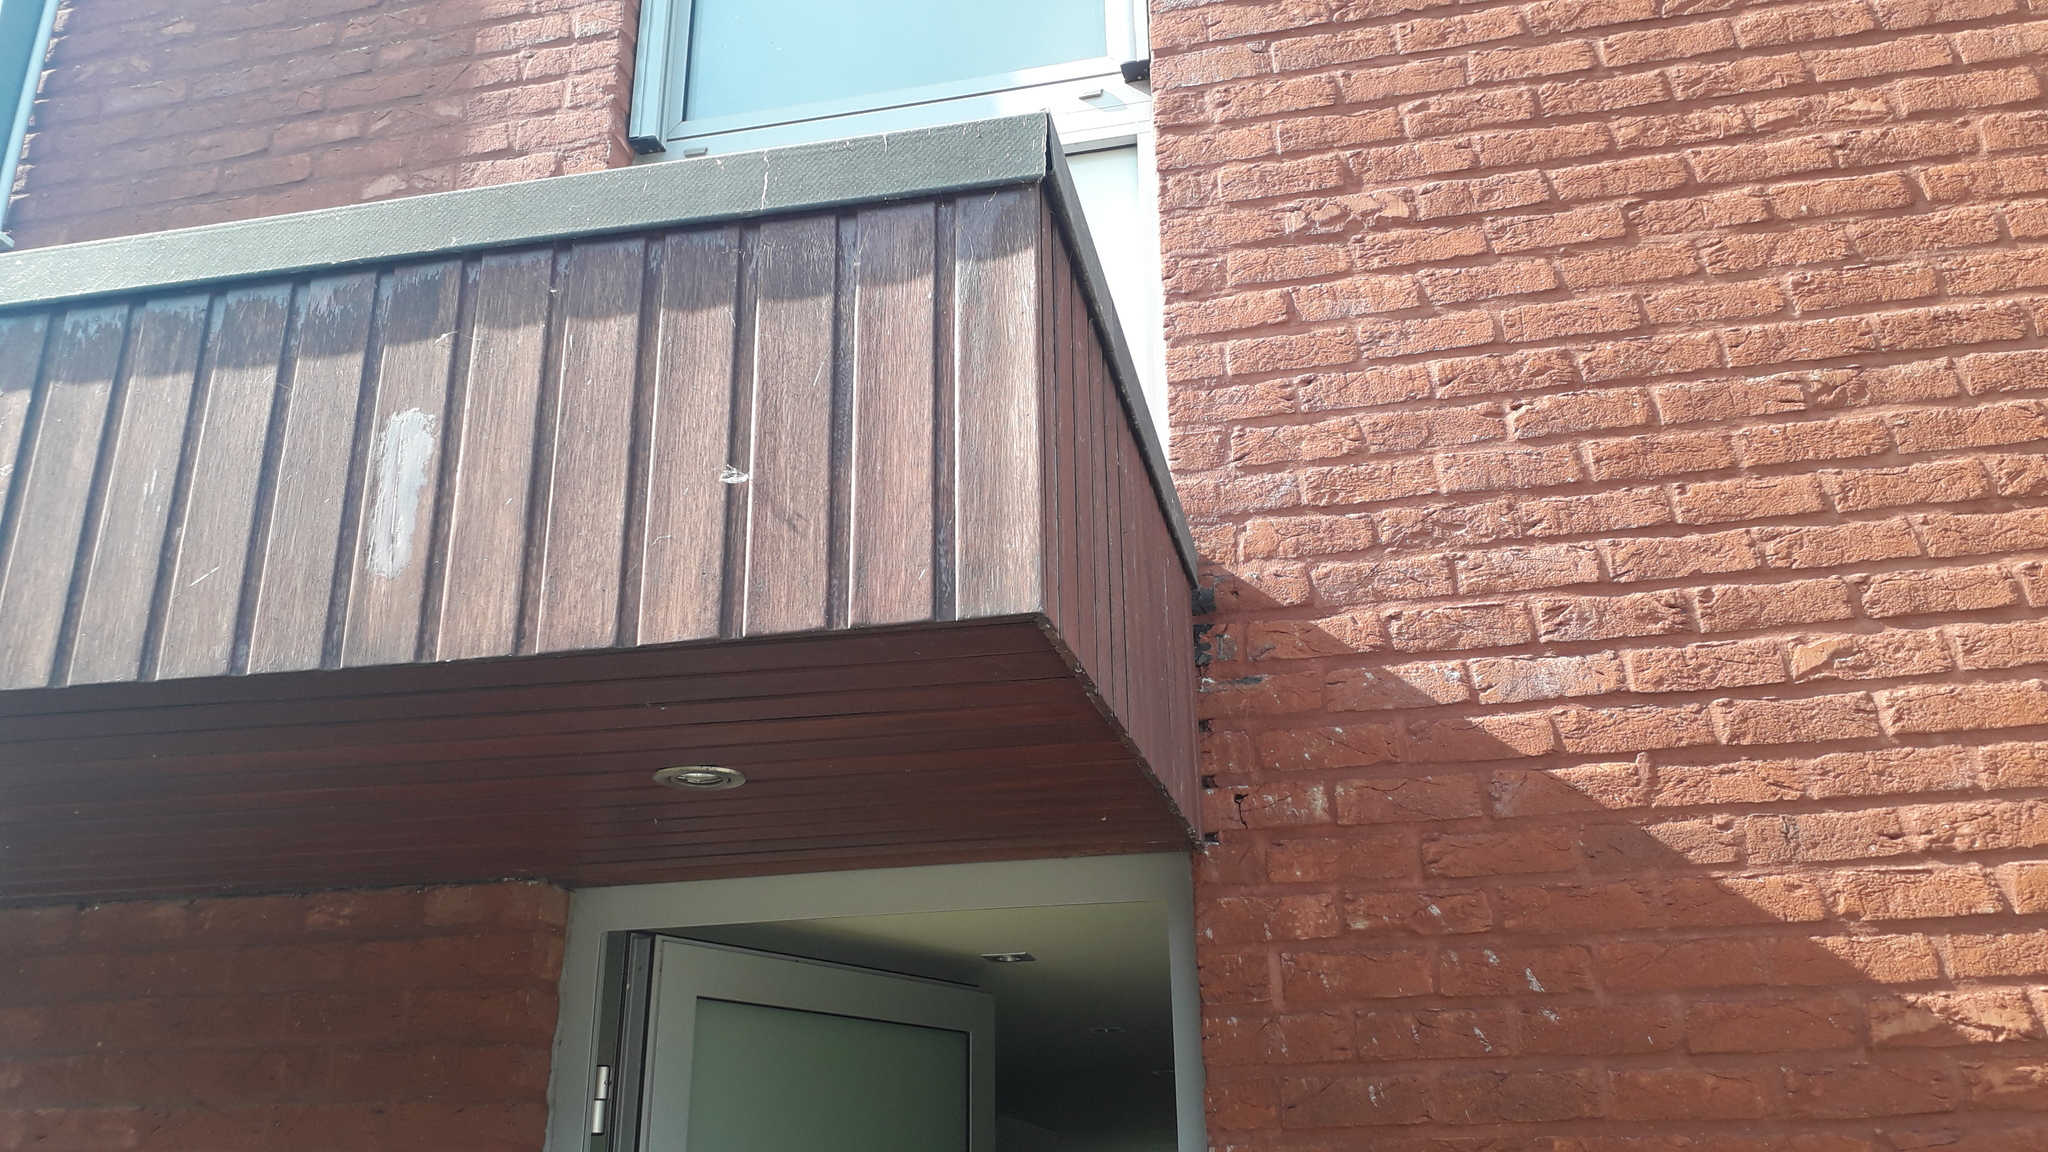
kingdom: Animalia
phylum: Arthropoda
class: Insecta
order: Hymenoptera
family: Vespidae
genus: Vespa
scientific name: Vespa velutina
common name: Asian hornet
